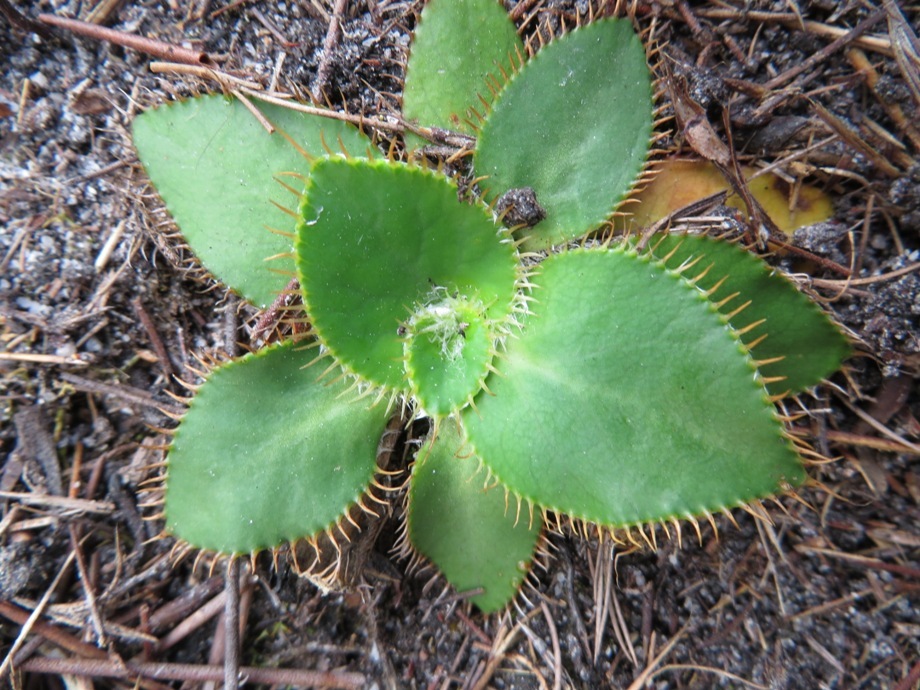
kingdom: Plantae
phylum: Tracheophyta
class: Magnoliopsida
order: Apiales
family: Apiaceae
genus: Hermas
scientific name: Hermas ciliata
